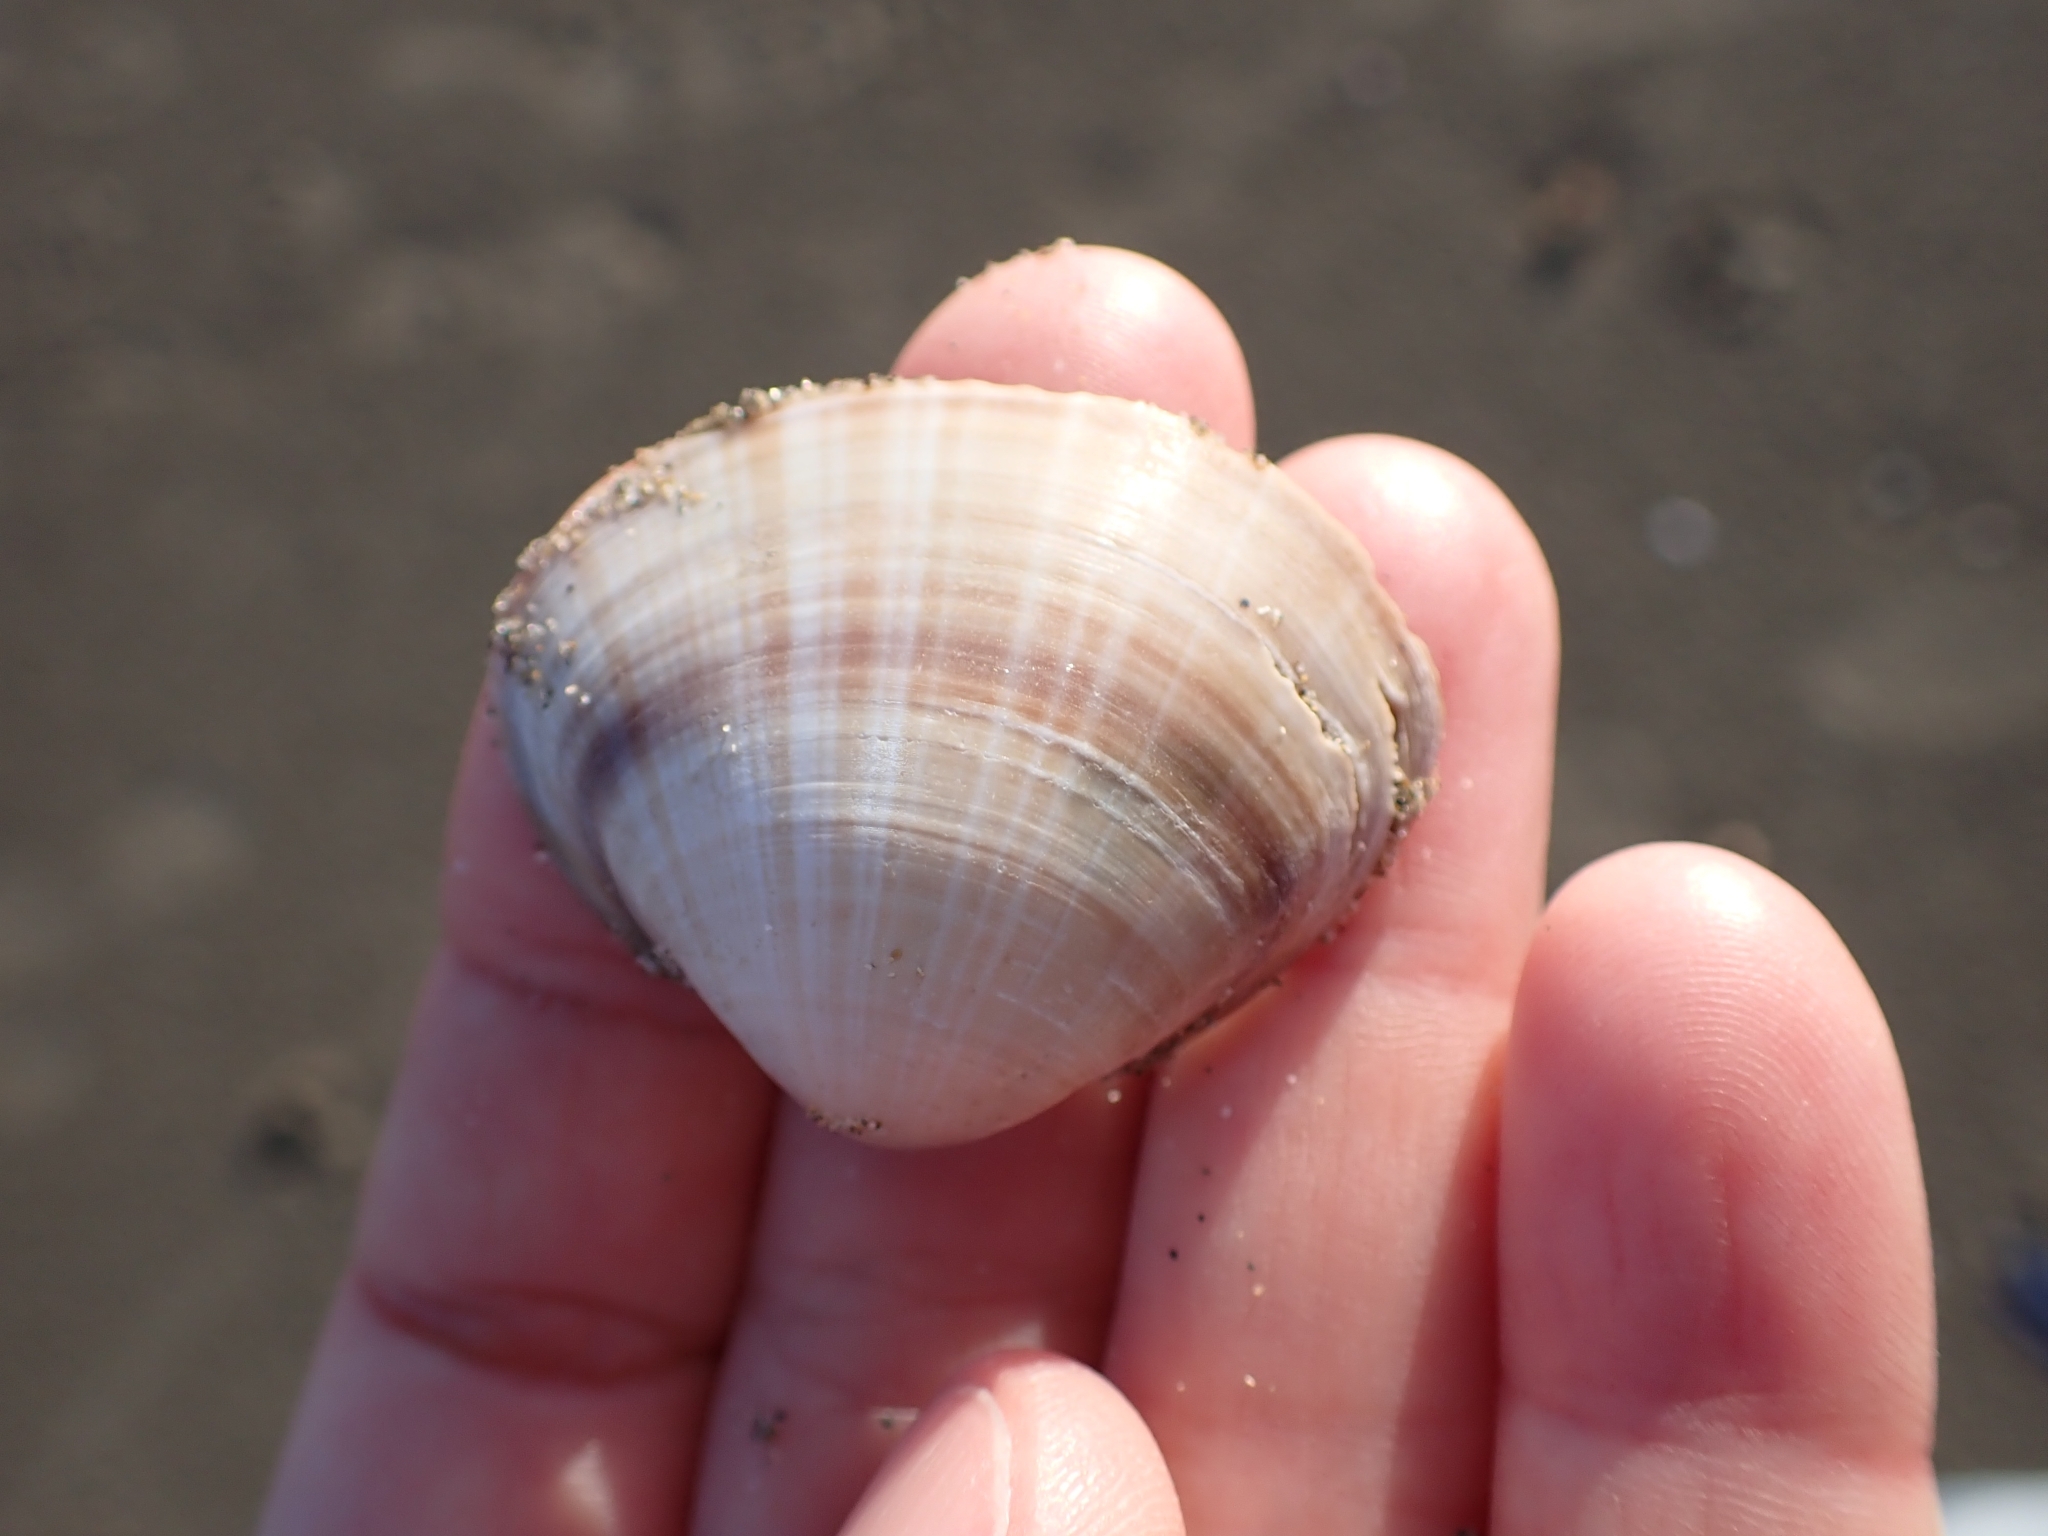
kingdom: Animalia
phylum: Mollusca
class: Bivalvia
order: Venerida
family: Mactridae
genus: Mactra
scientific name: Mactra stultorum
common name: Rayed trough shell
